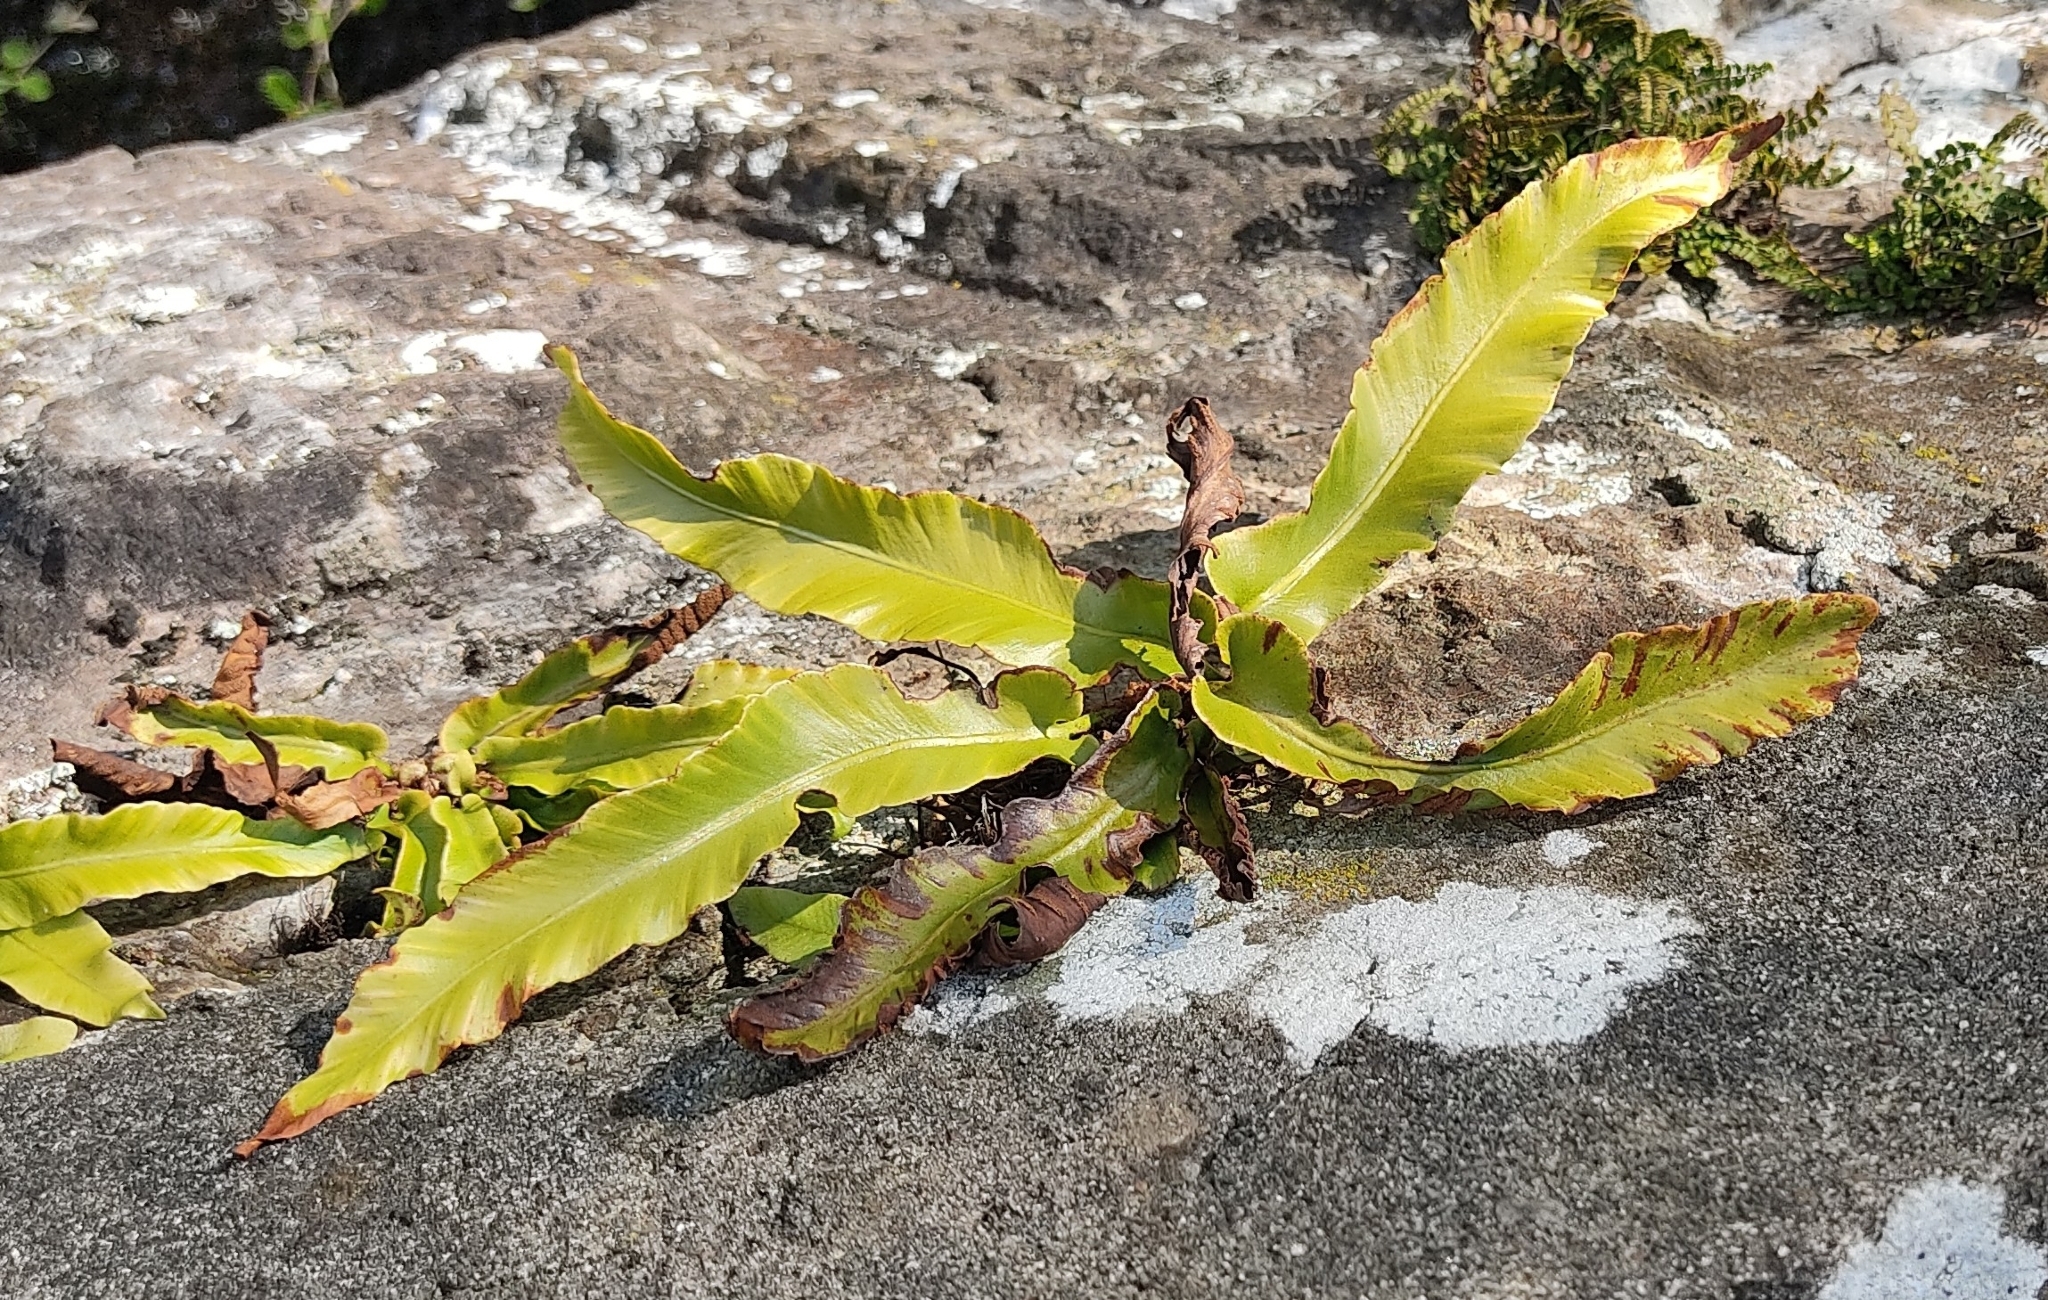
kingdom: Plantae
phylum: Tracheophyta
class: Polypodiopsida
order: Polypodiales
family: Aspleniaceae
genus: Asplenium
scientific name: Asplenium scolopendrium
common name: Hart's-tongue fern
